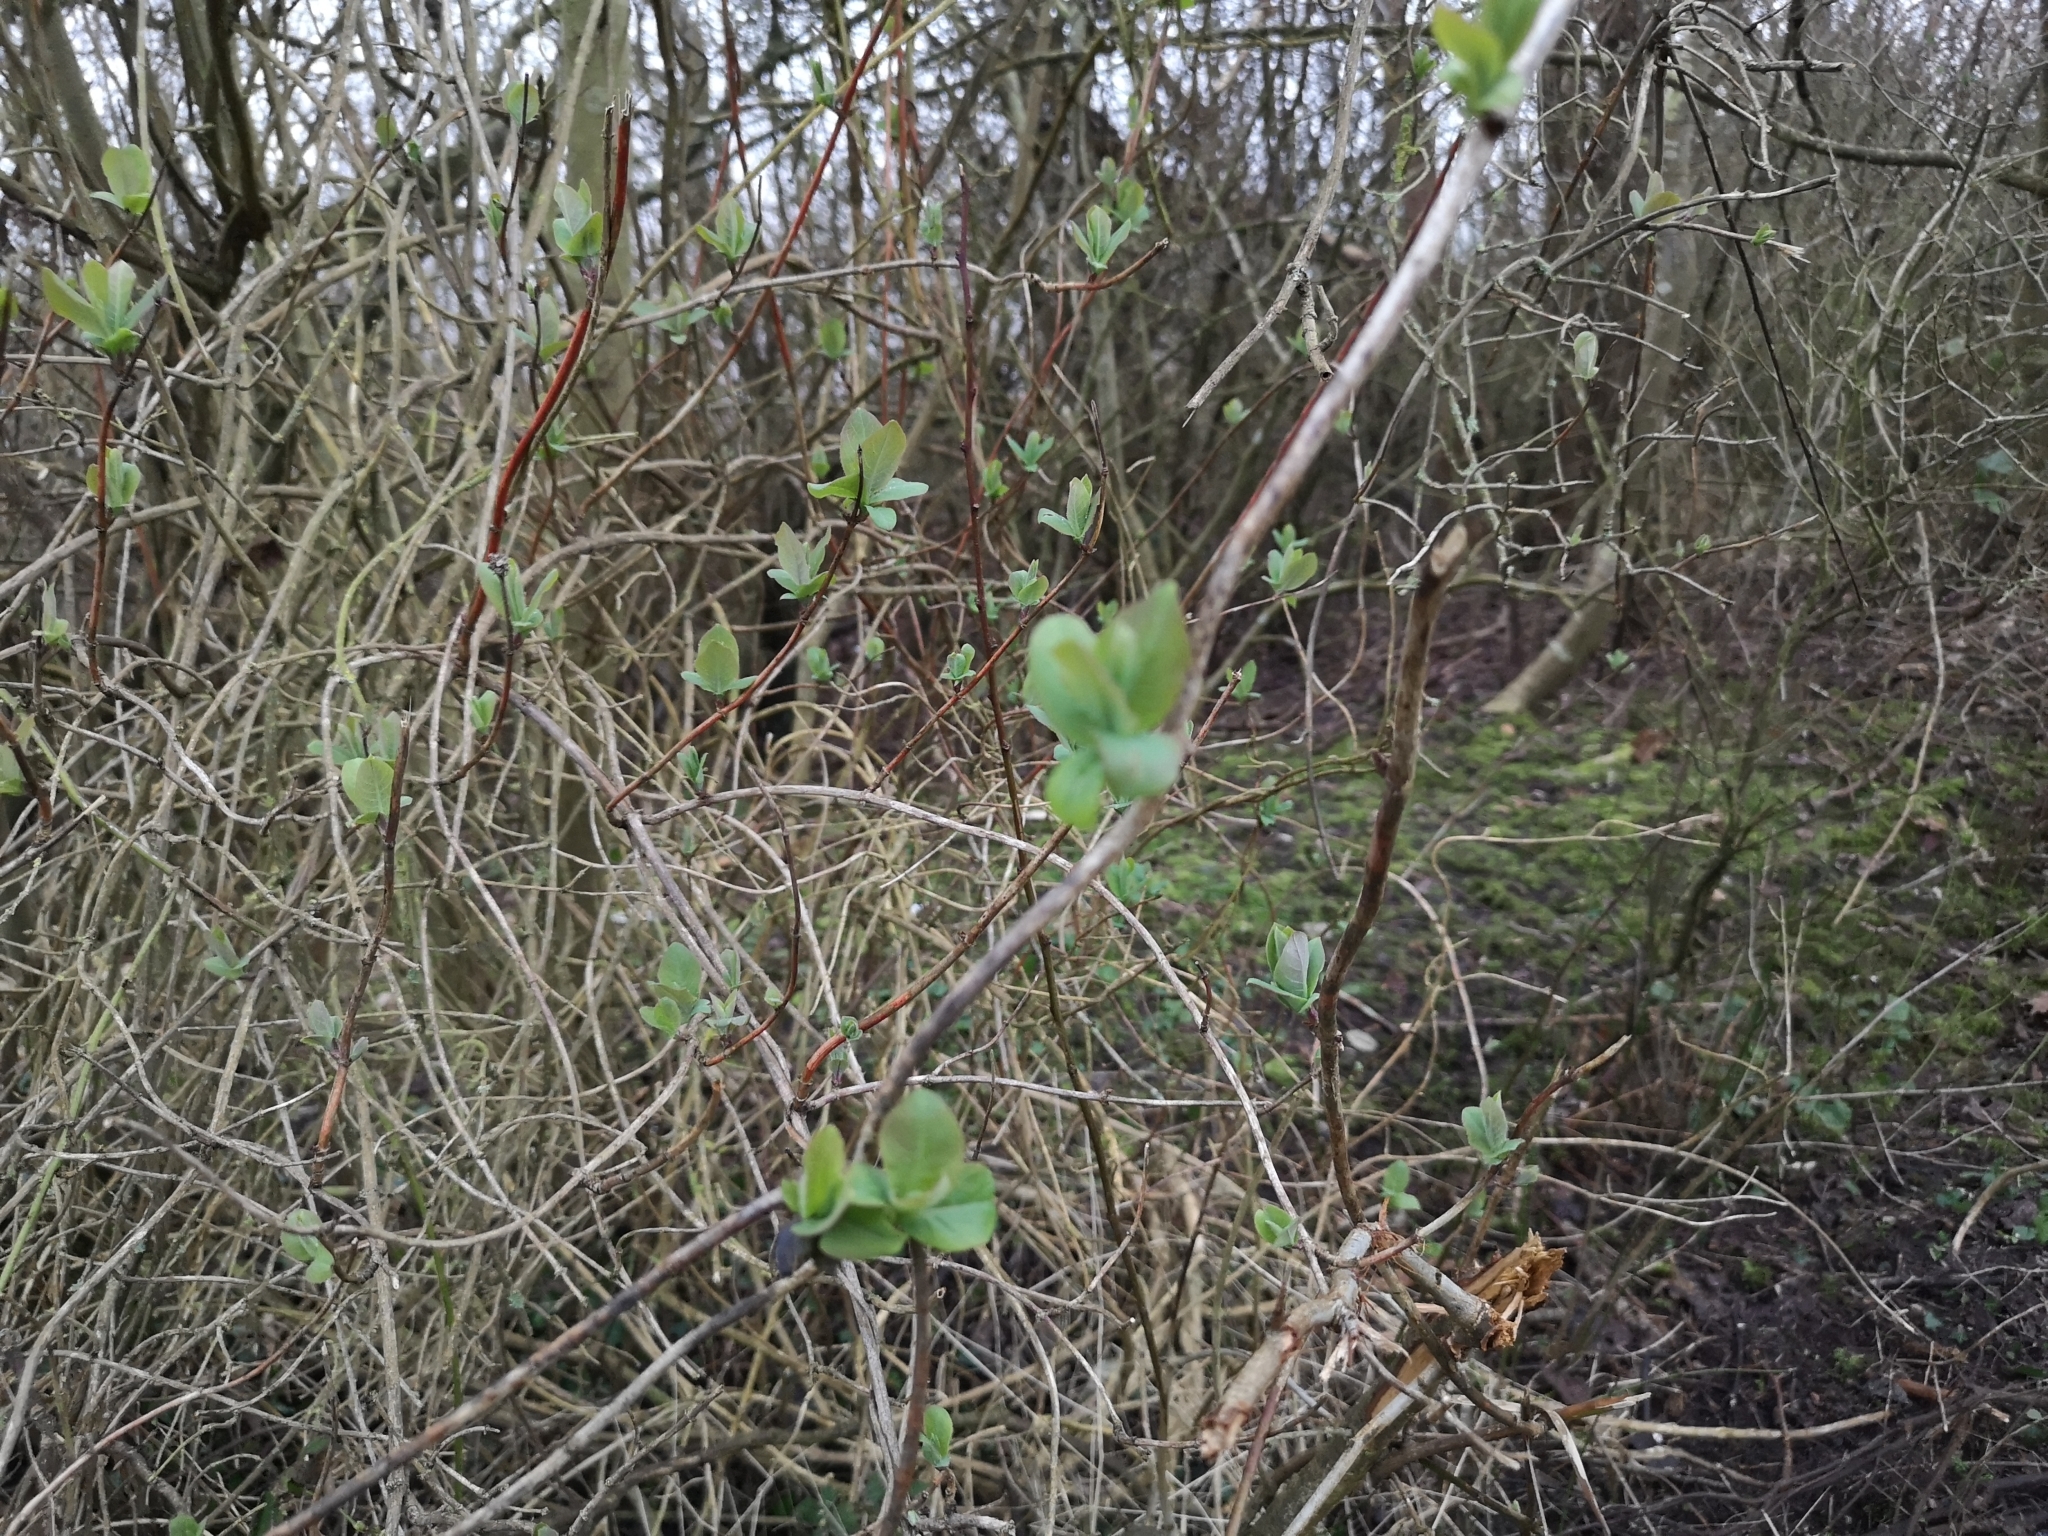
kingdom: Plantae
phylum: Tracheophyta
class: Magnoliopsida
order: Dipsacales
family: Caprifoliaceae
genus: Lonicera
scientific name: Lonicera periclymenum
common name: European honeysuckle
